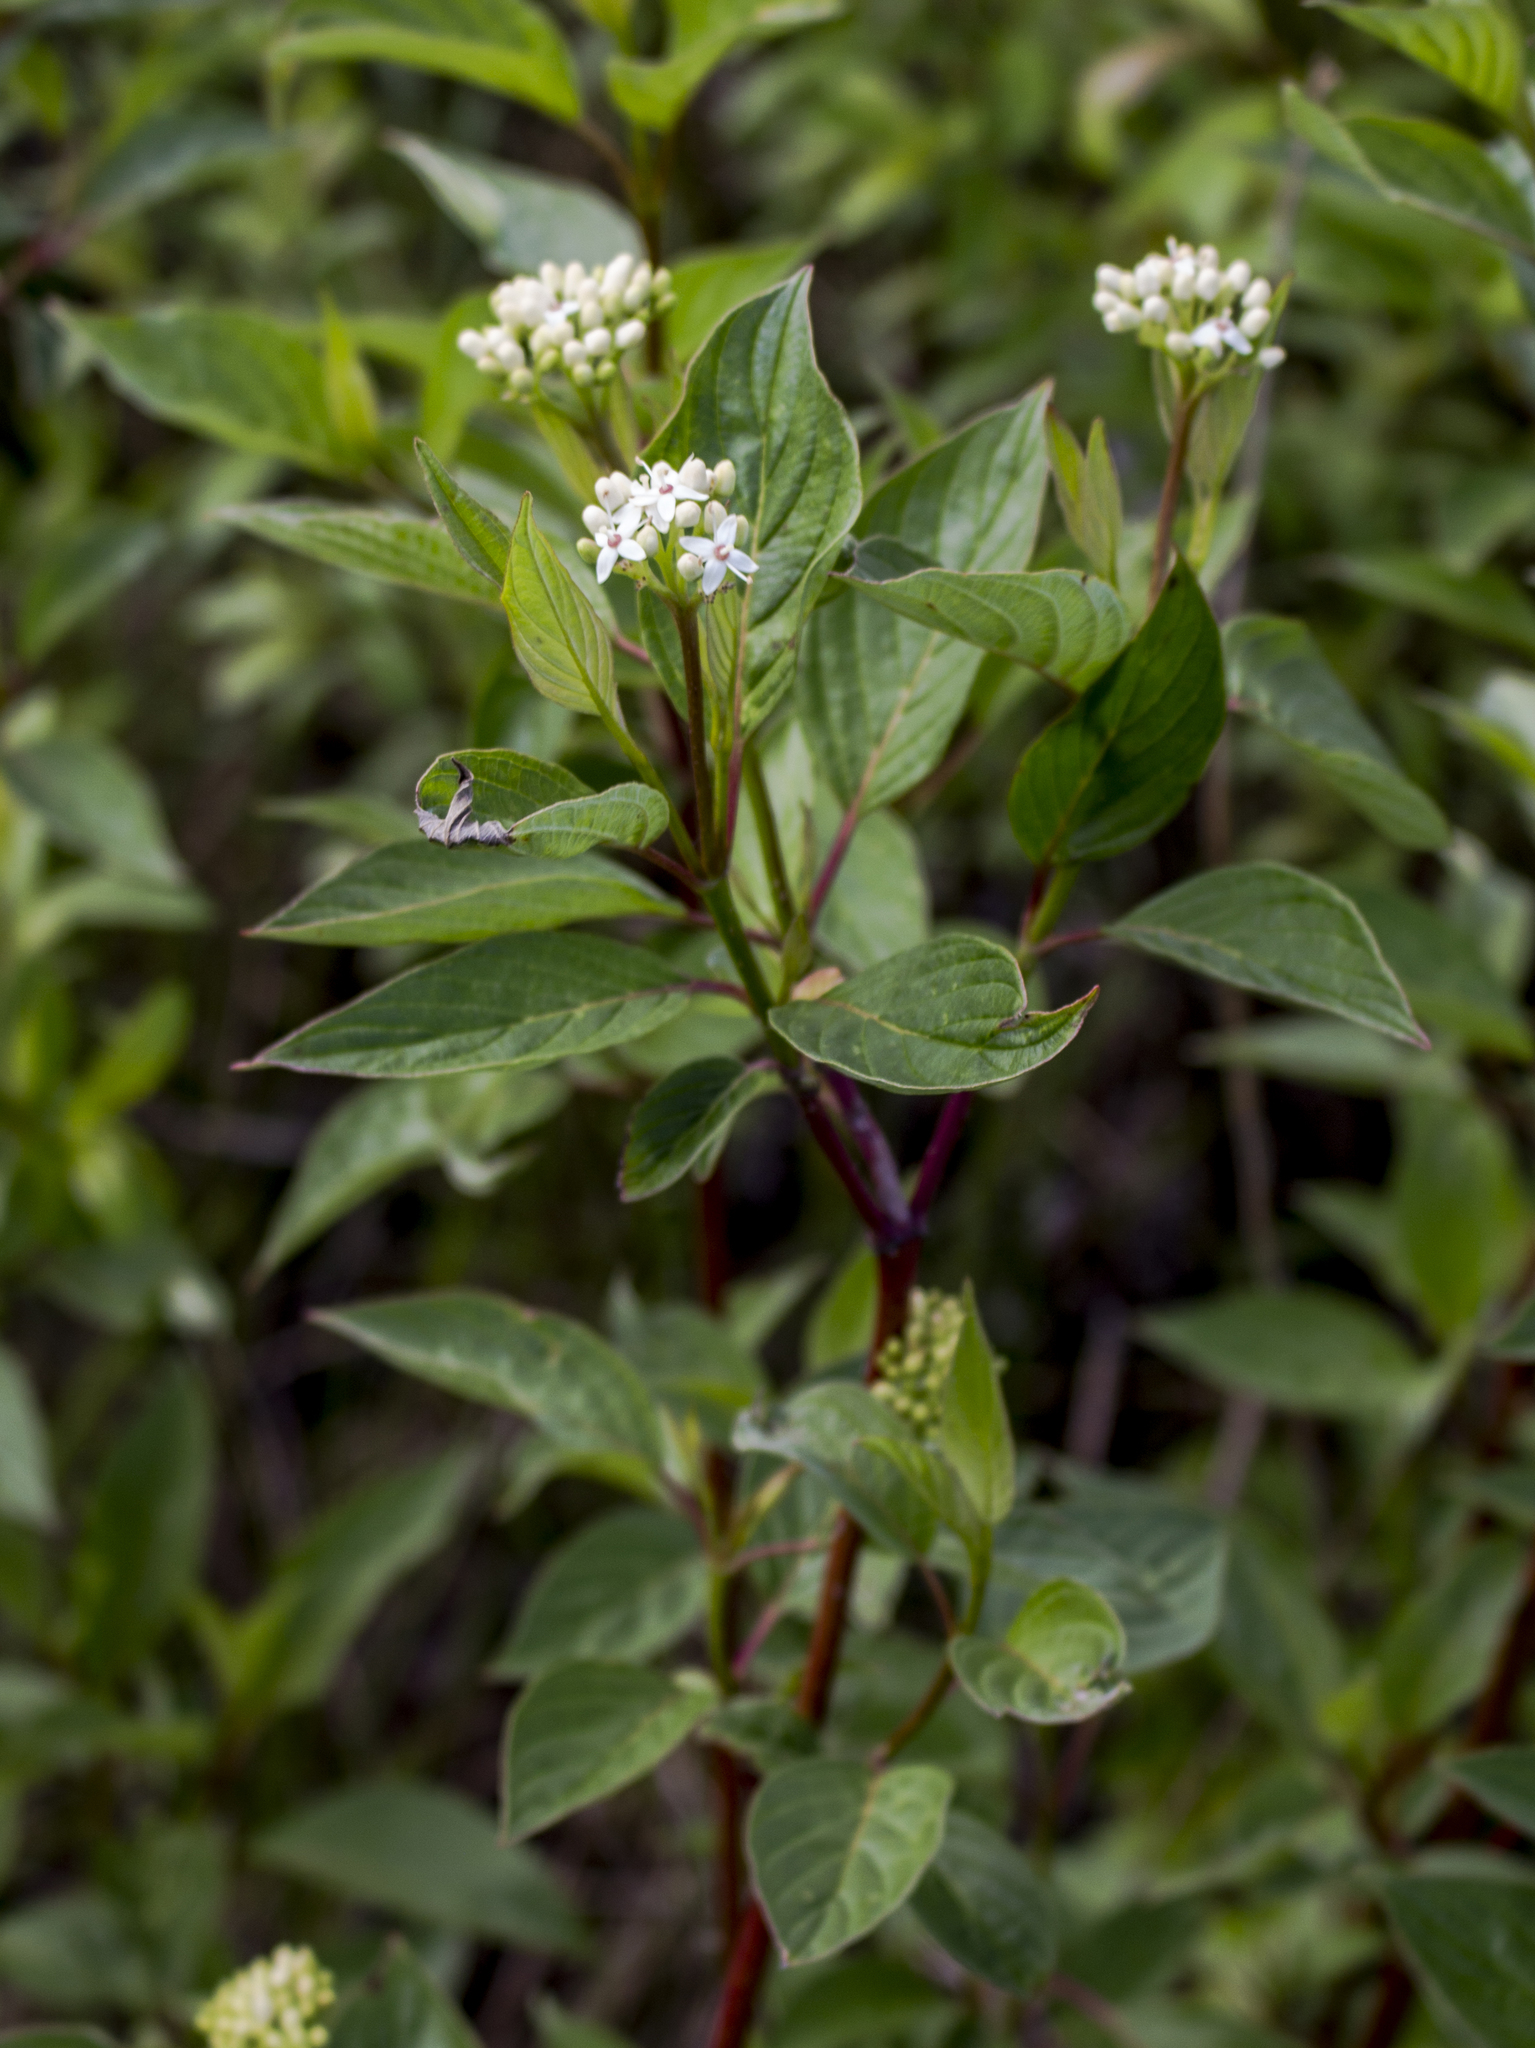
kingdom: Plantae
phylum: Tracheophyta
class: Magnoliopsida
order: Cornales
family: Cornaceae
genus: Cornus
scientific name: Cornus sericea
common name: Red-osier dogwood
